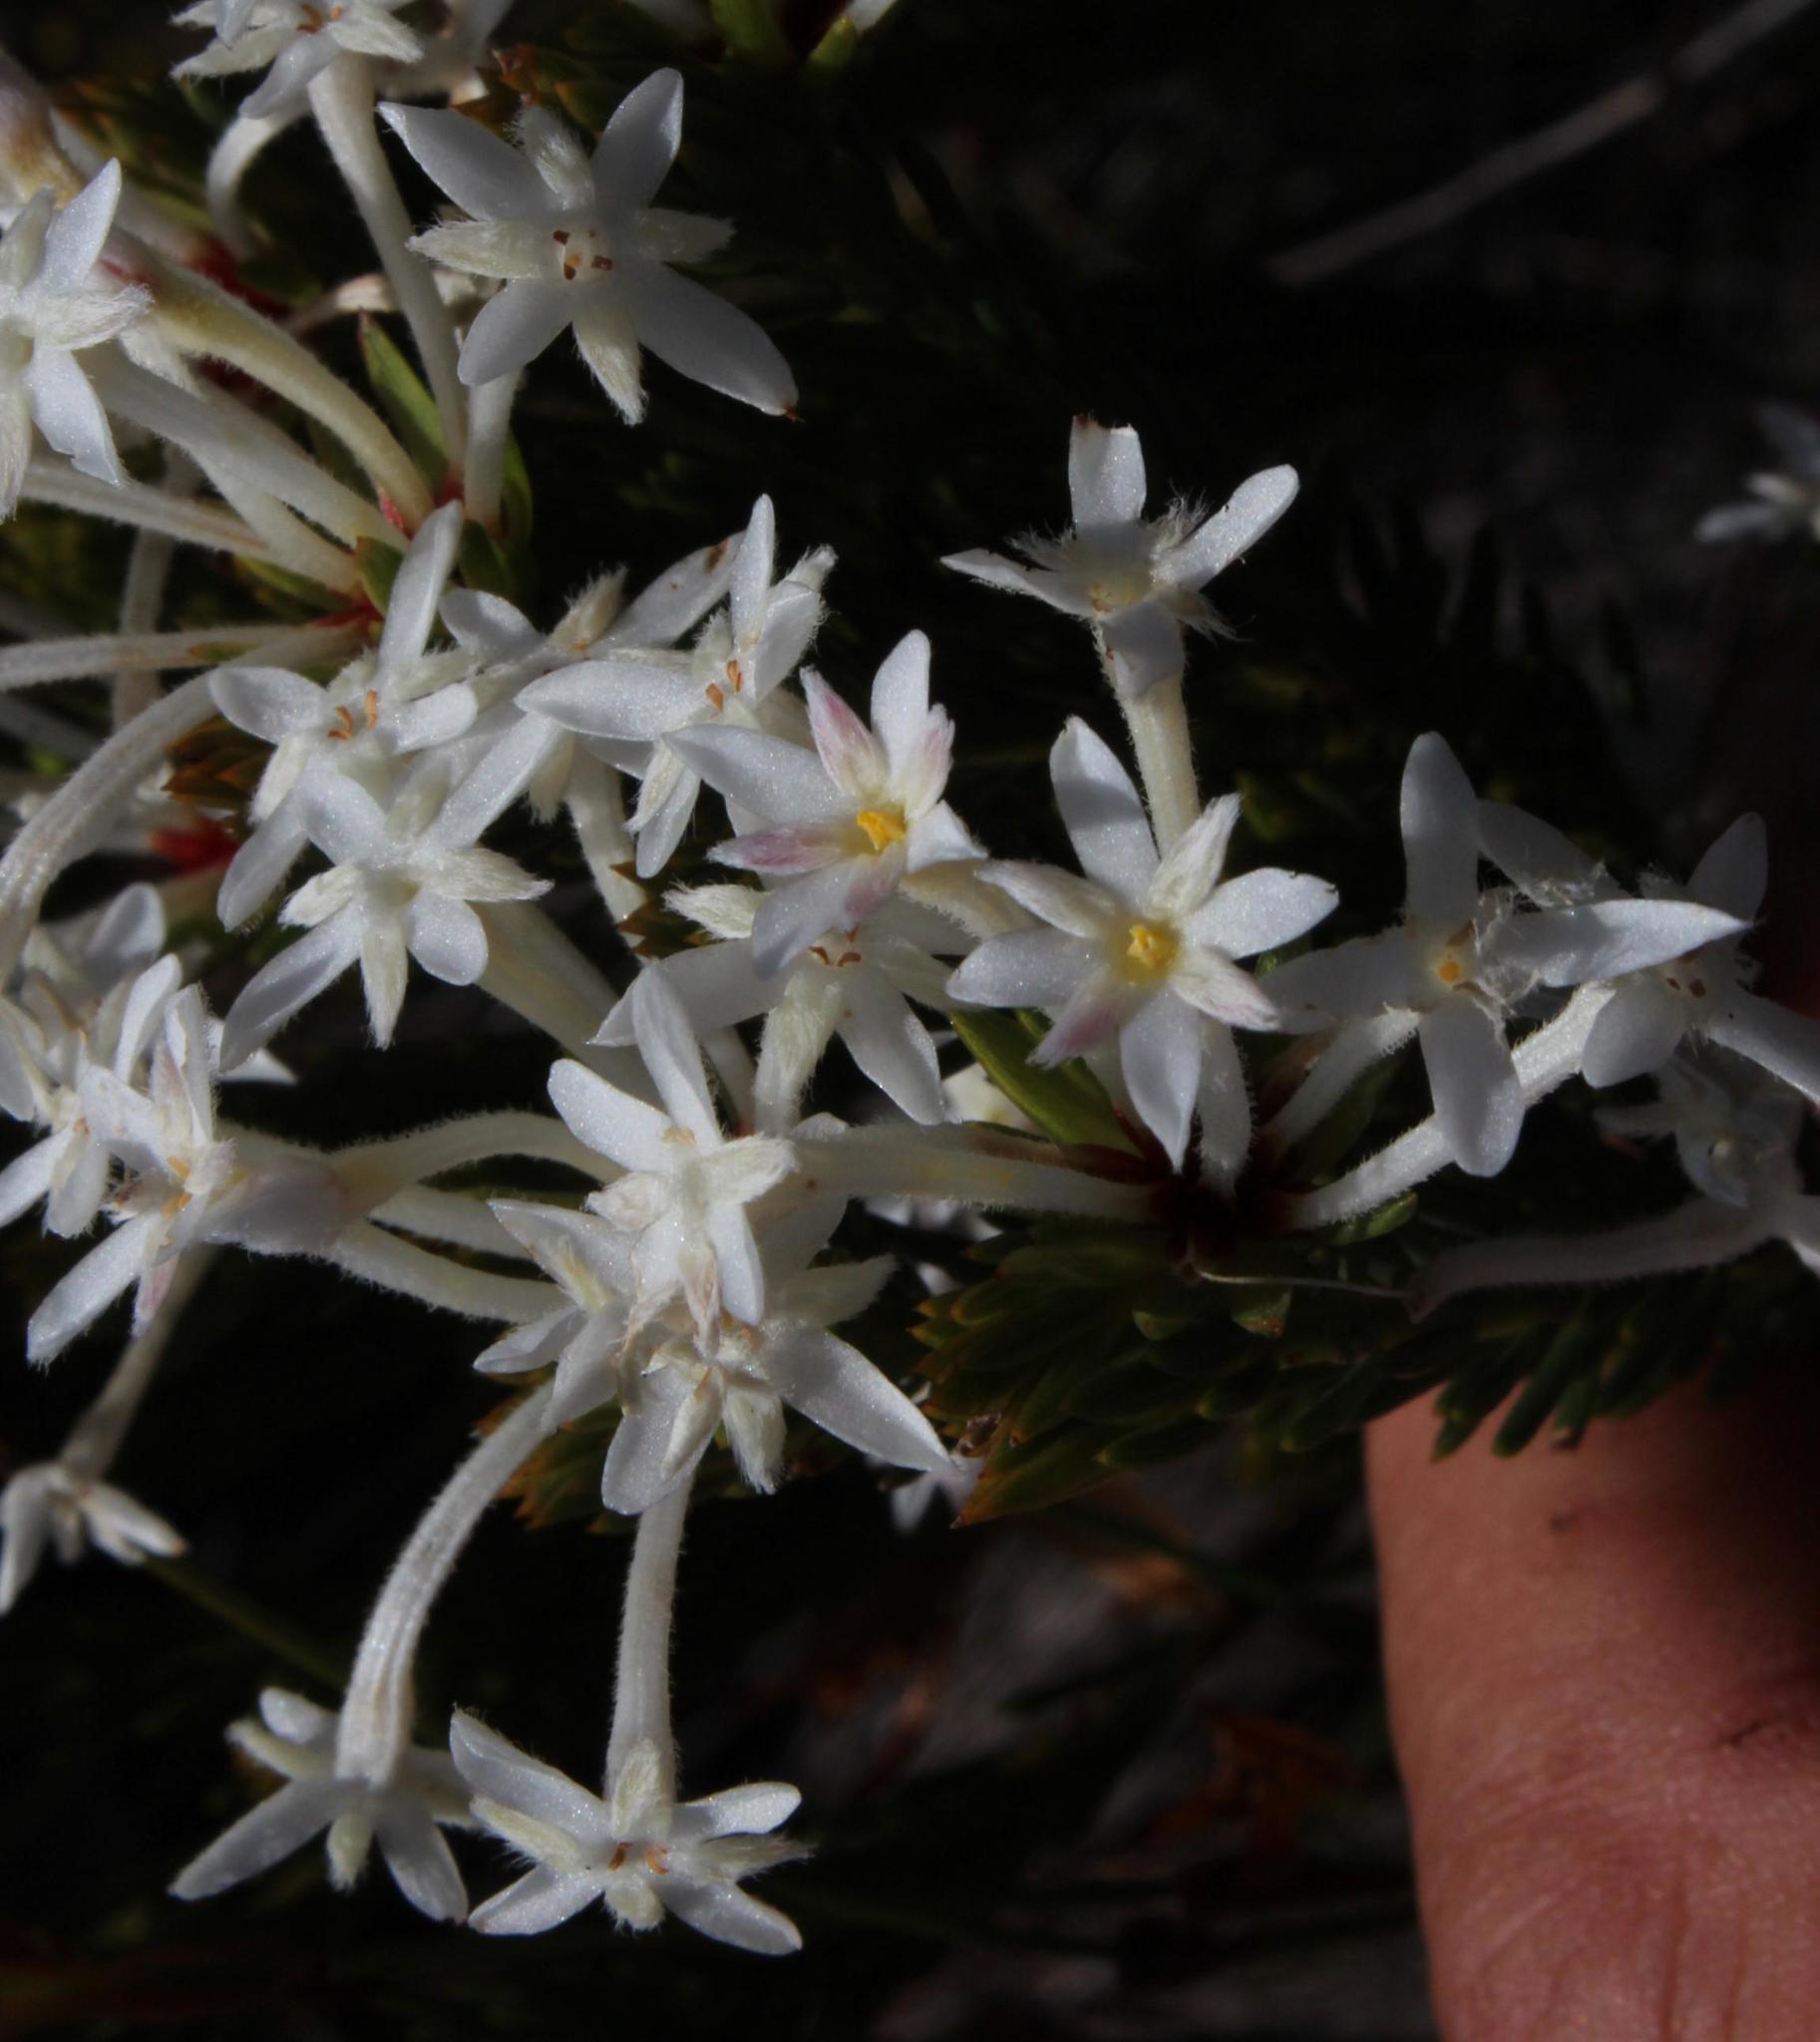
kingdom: Plantae
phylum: Tracheophyta
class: Magnoliopsida
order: Malvales
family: Thymelaeaceae
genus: Gnidia
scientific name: Gnidia pinifolia
